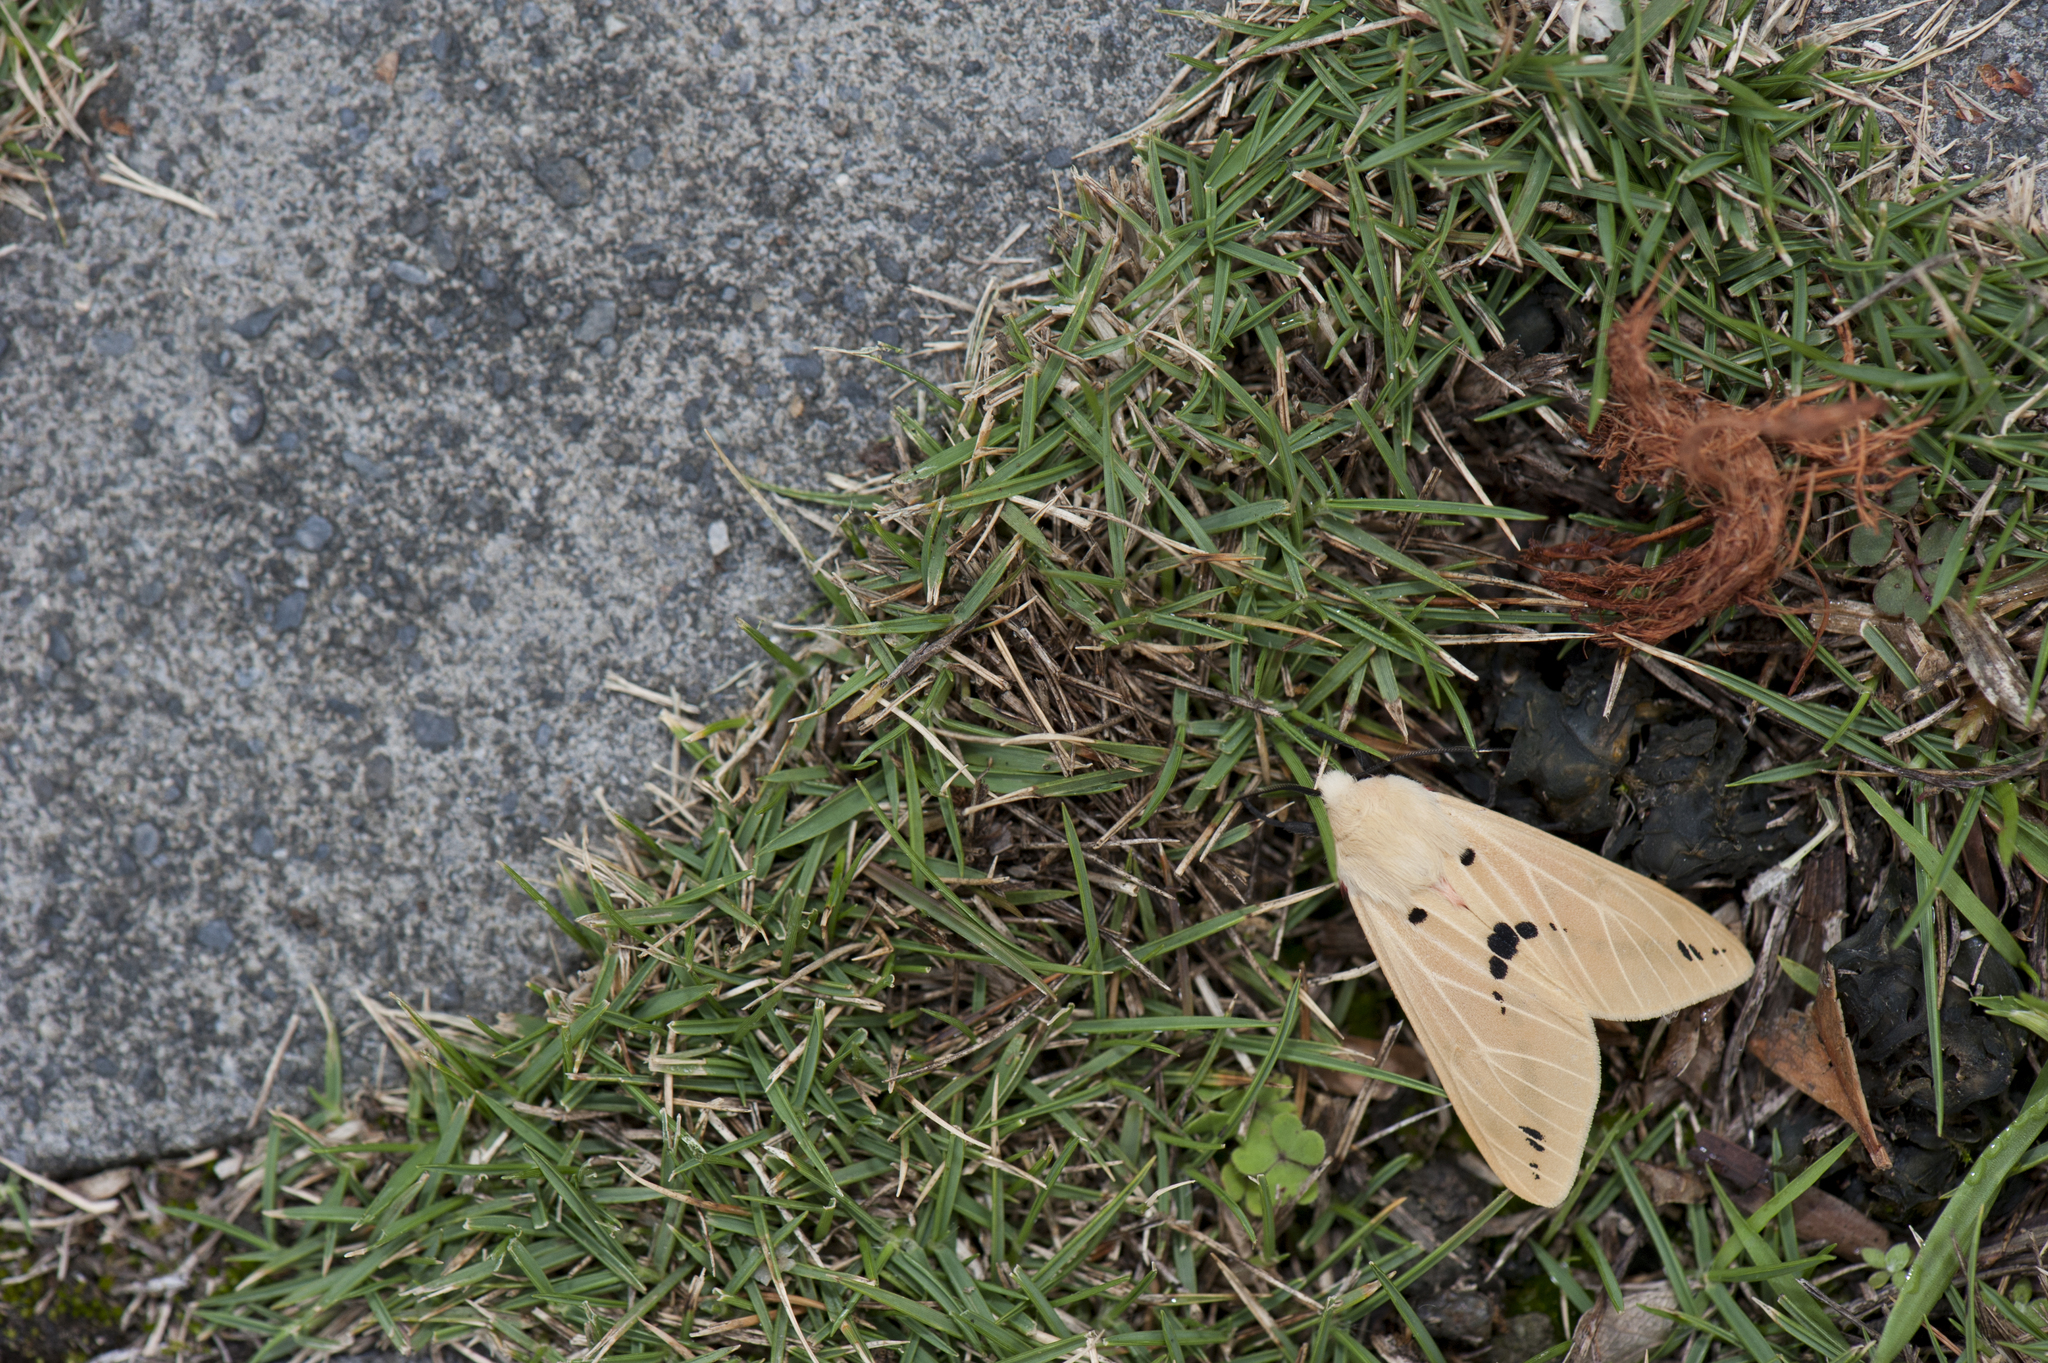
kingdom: Animalia
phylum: Arthropoda
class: Insecta
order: Lepidoptera
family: Erebidae
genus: Spilarctia
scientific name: Spilarctia subcarnea
